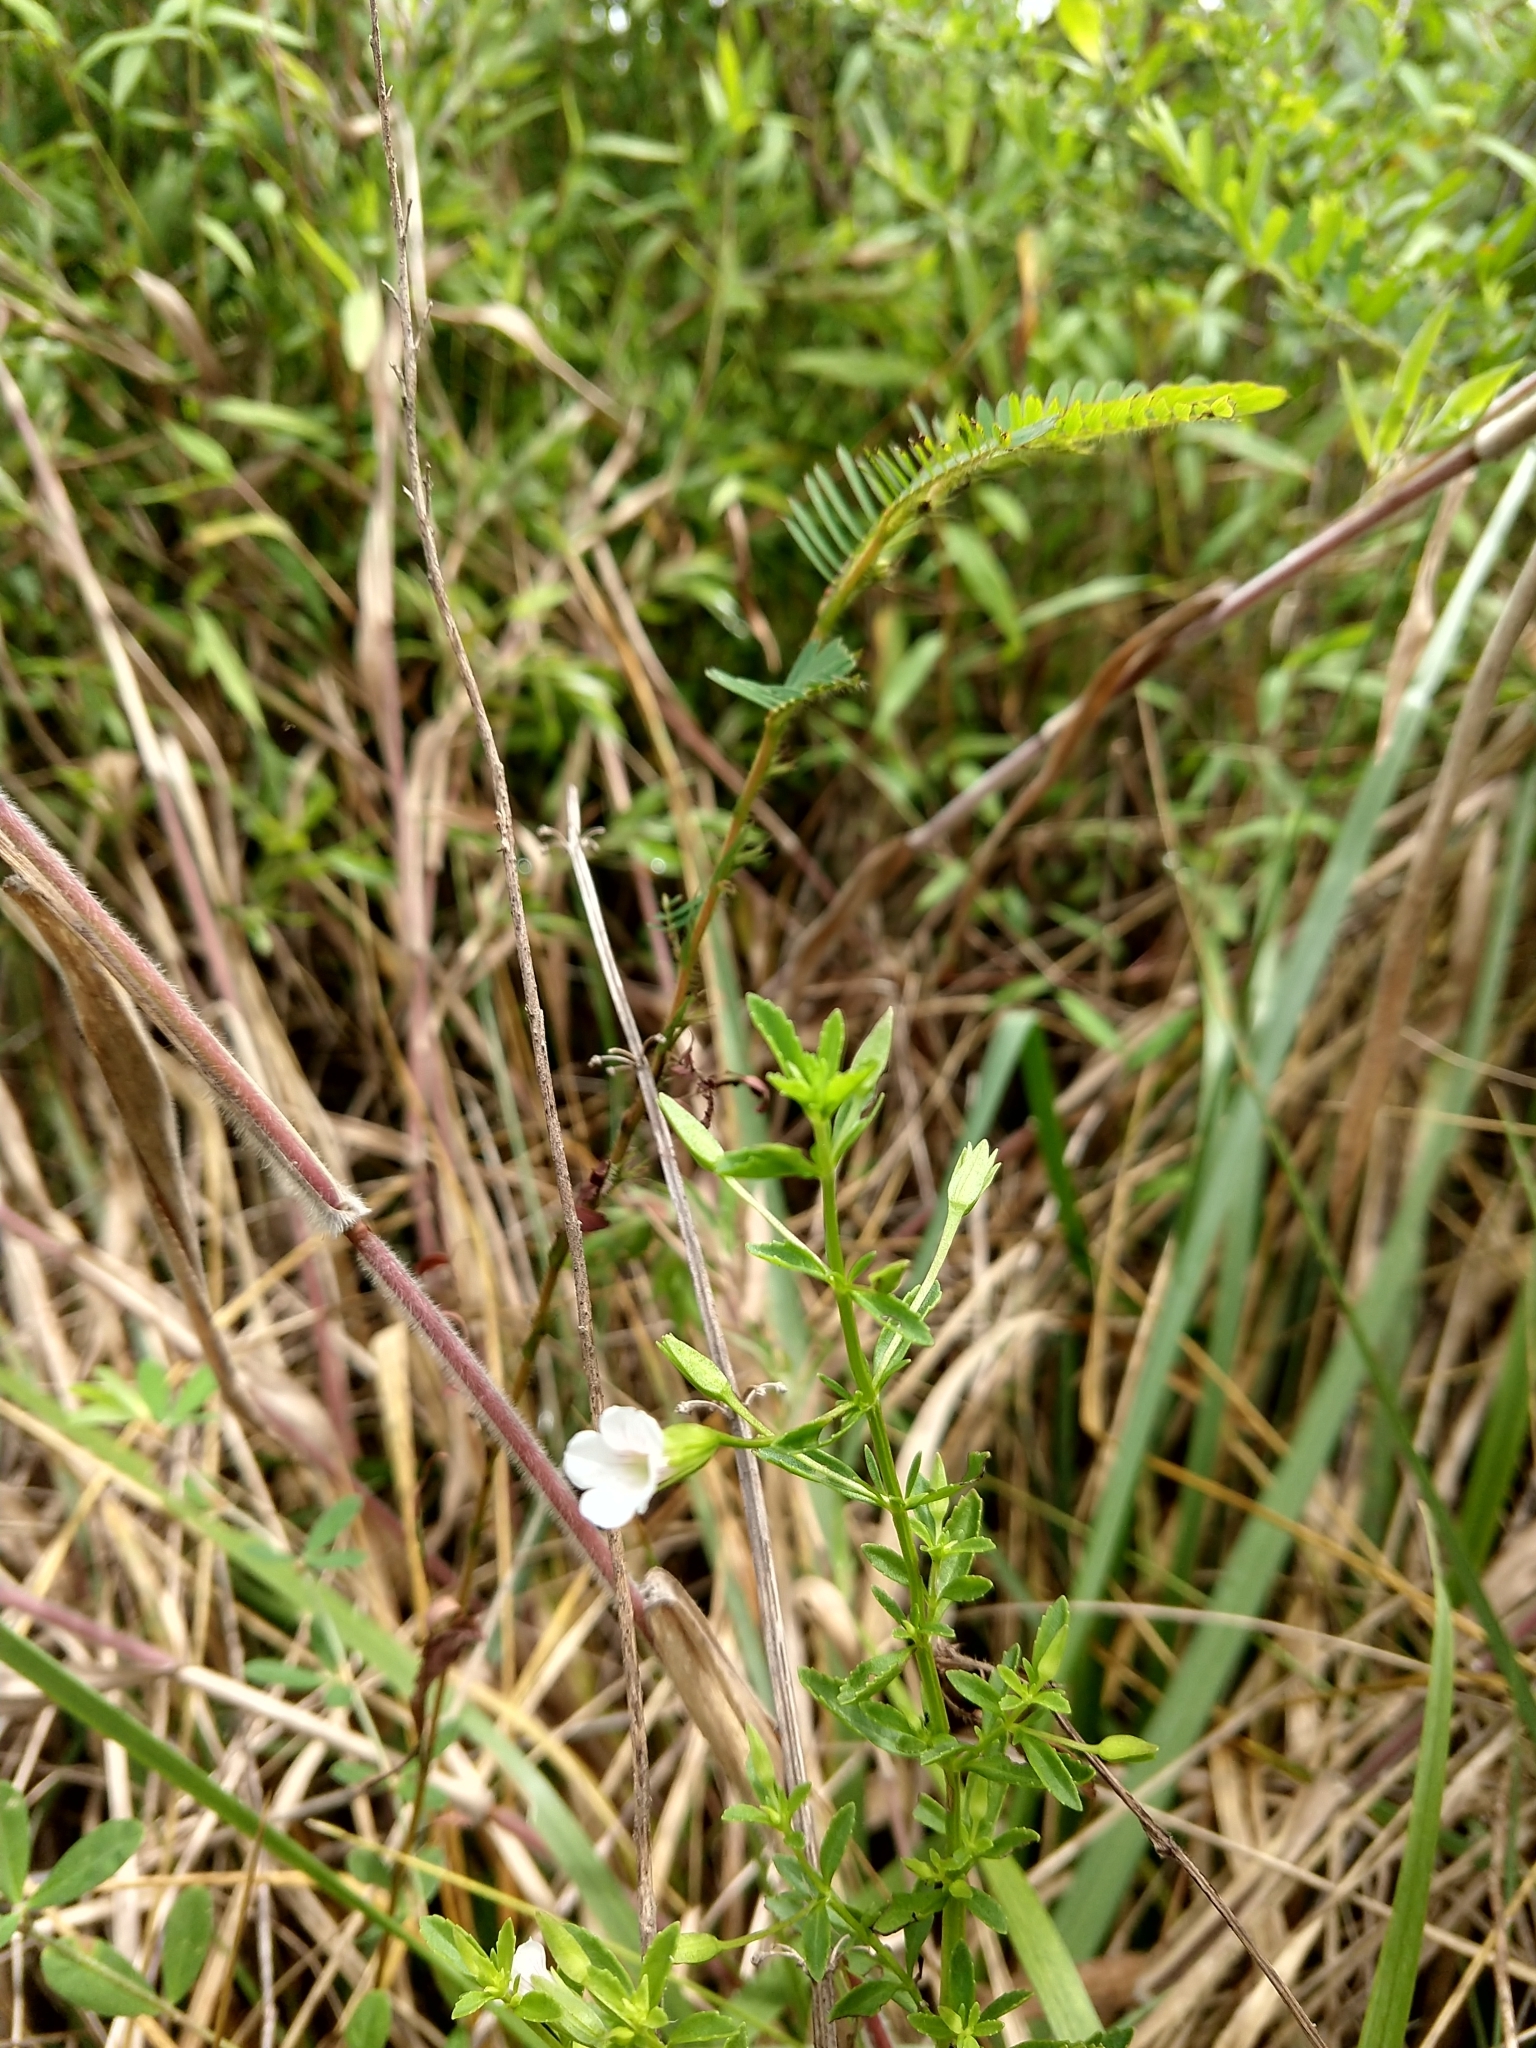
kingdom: Plantae
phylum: Tracheophyta
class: Magnoliopsida
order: Lamiales
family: Plantaginaceae
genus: Mecardonia
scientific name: Mecardonia acuminata
